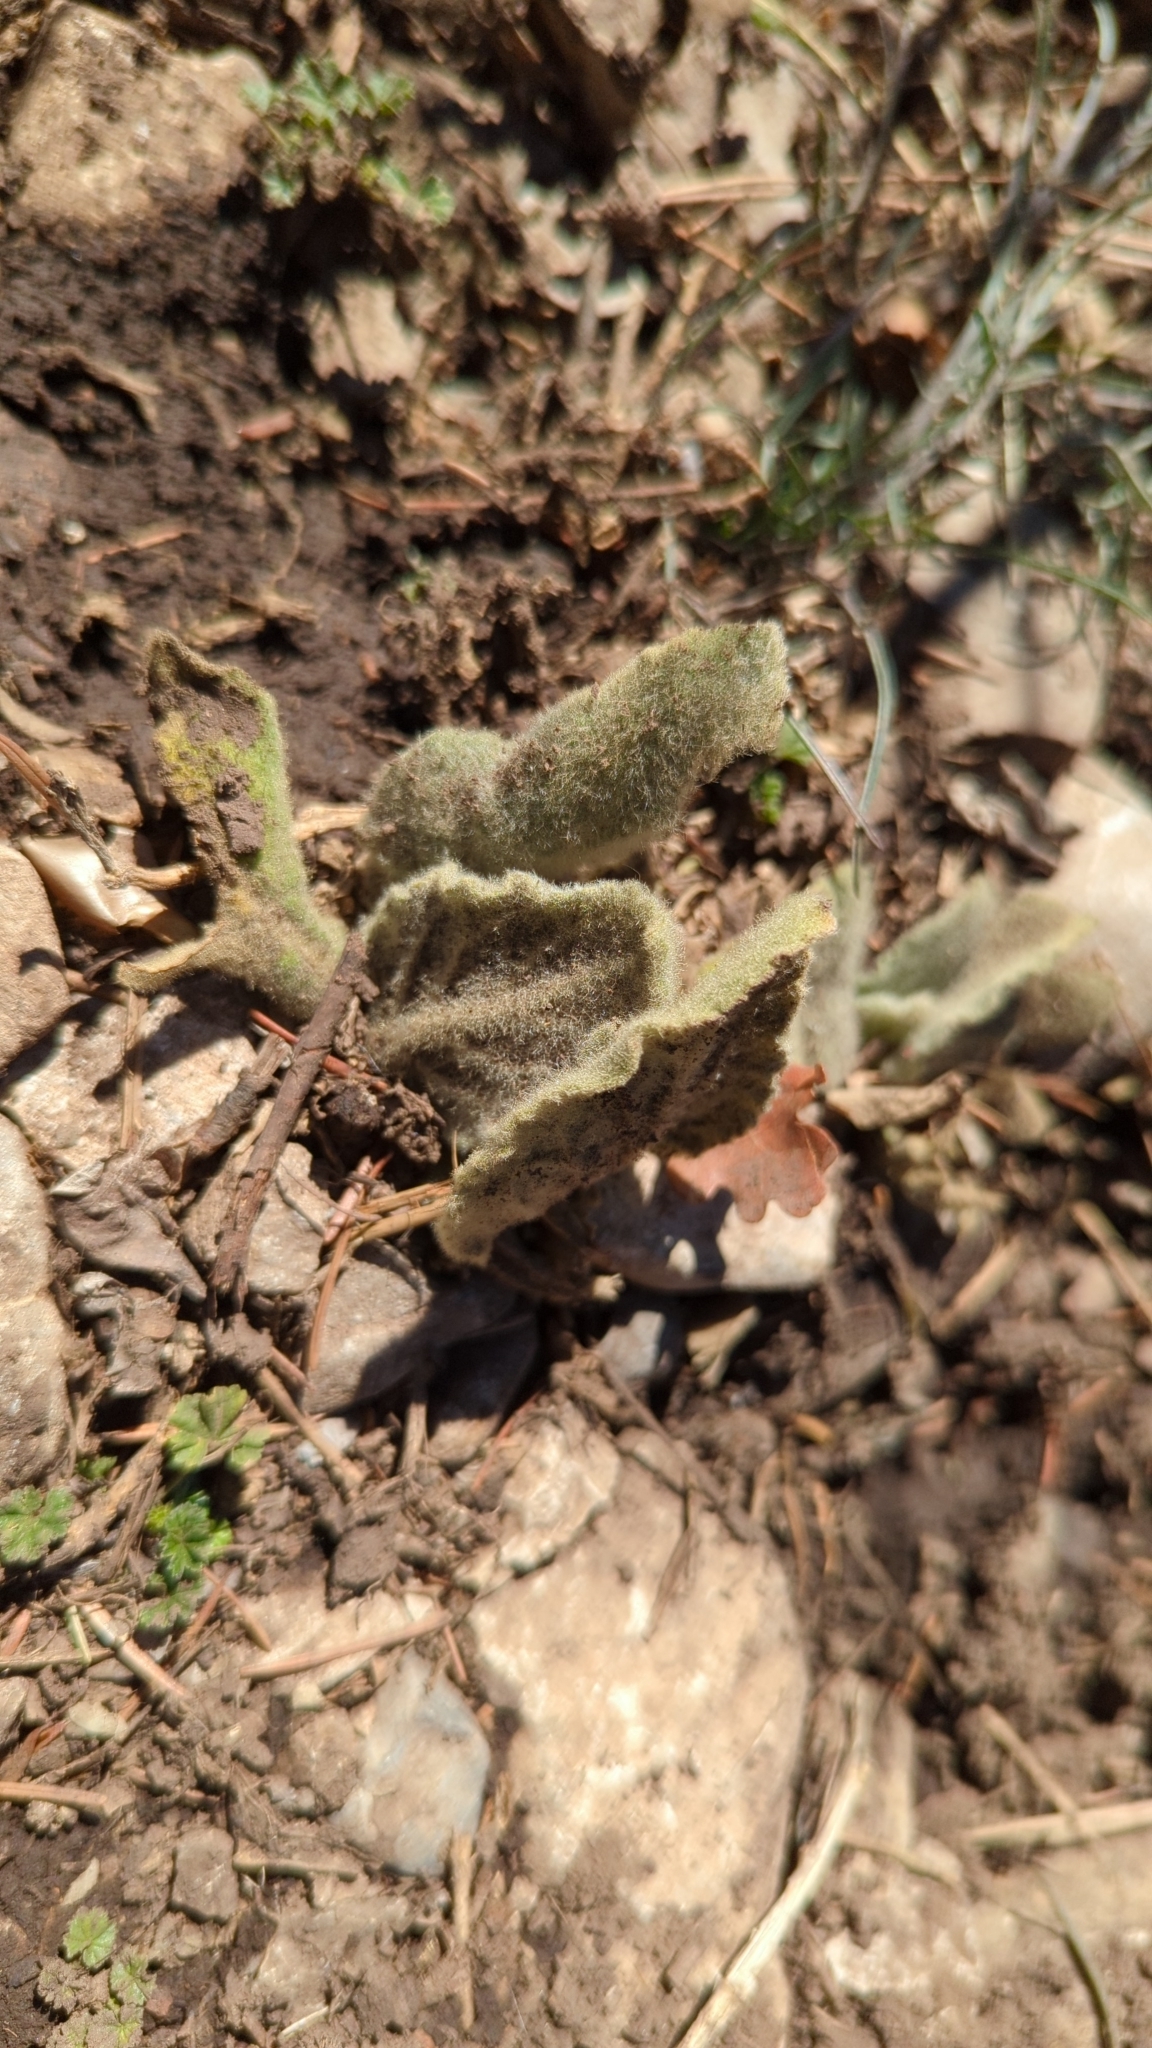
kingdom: Plantae
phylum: Tracheophyta
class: Magnoliopsida
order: Lamiales
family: Scrophulariaceae
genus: Verbascum
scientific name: Verbascum thapsus
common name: Common mullein
